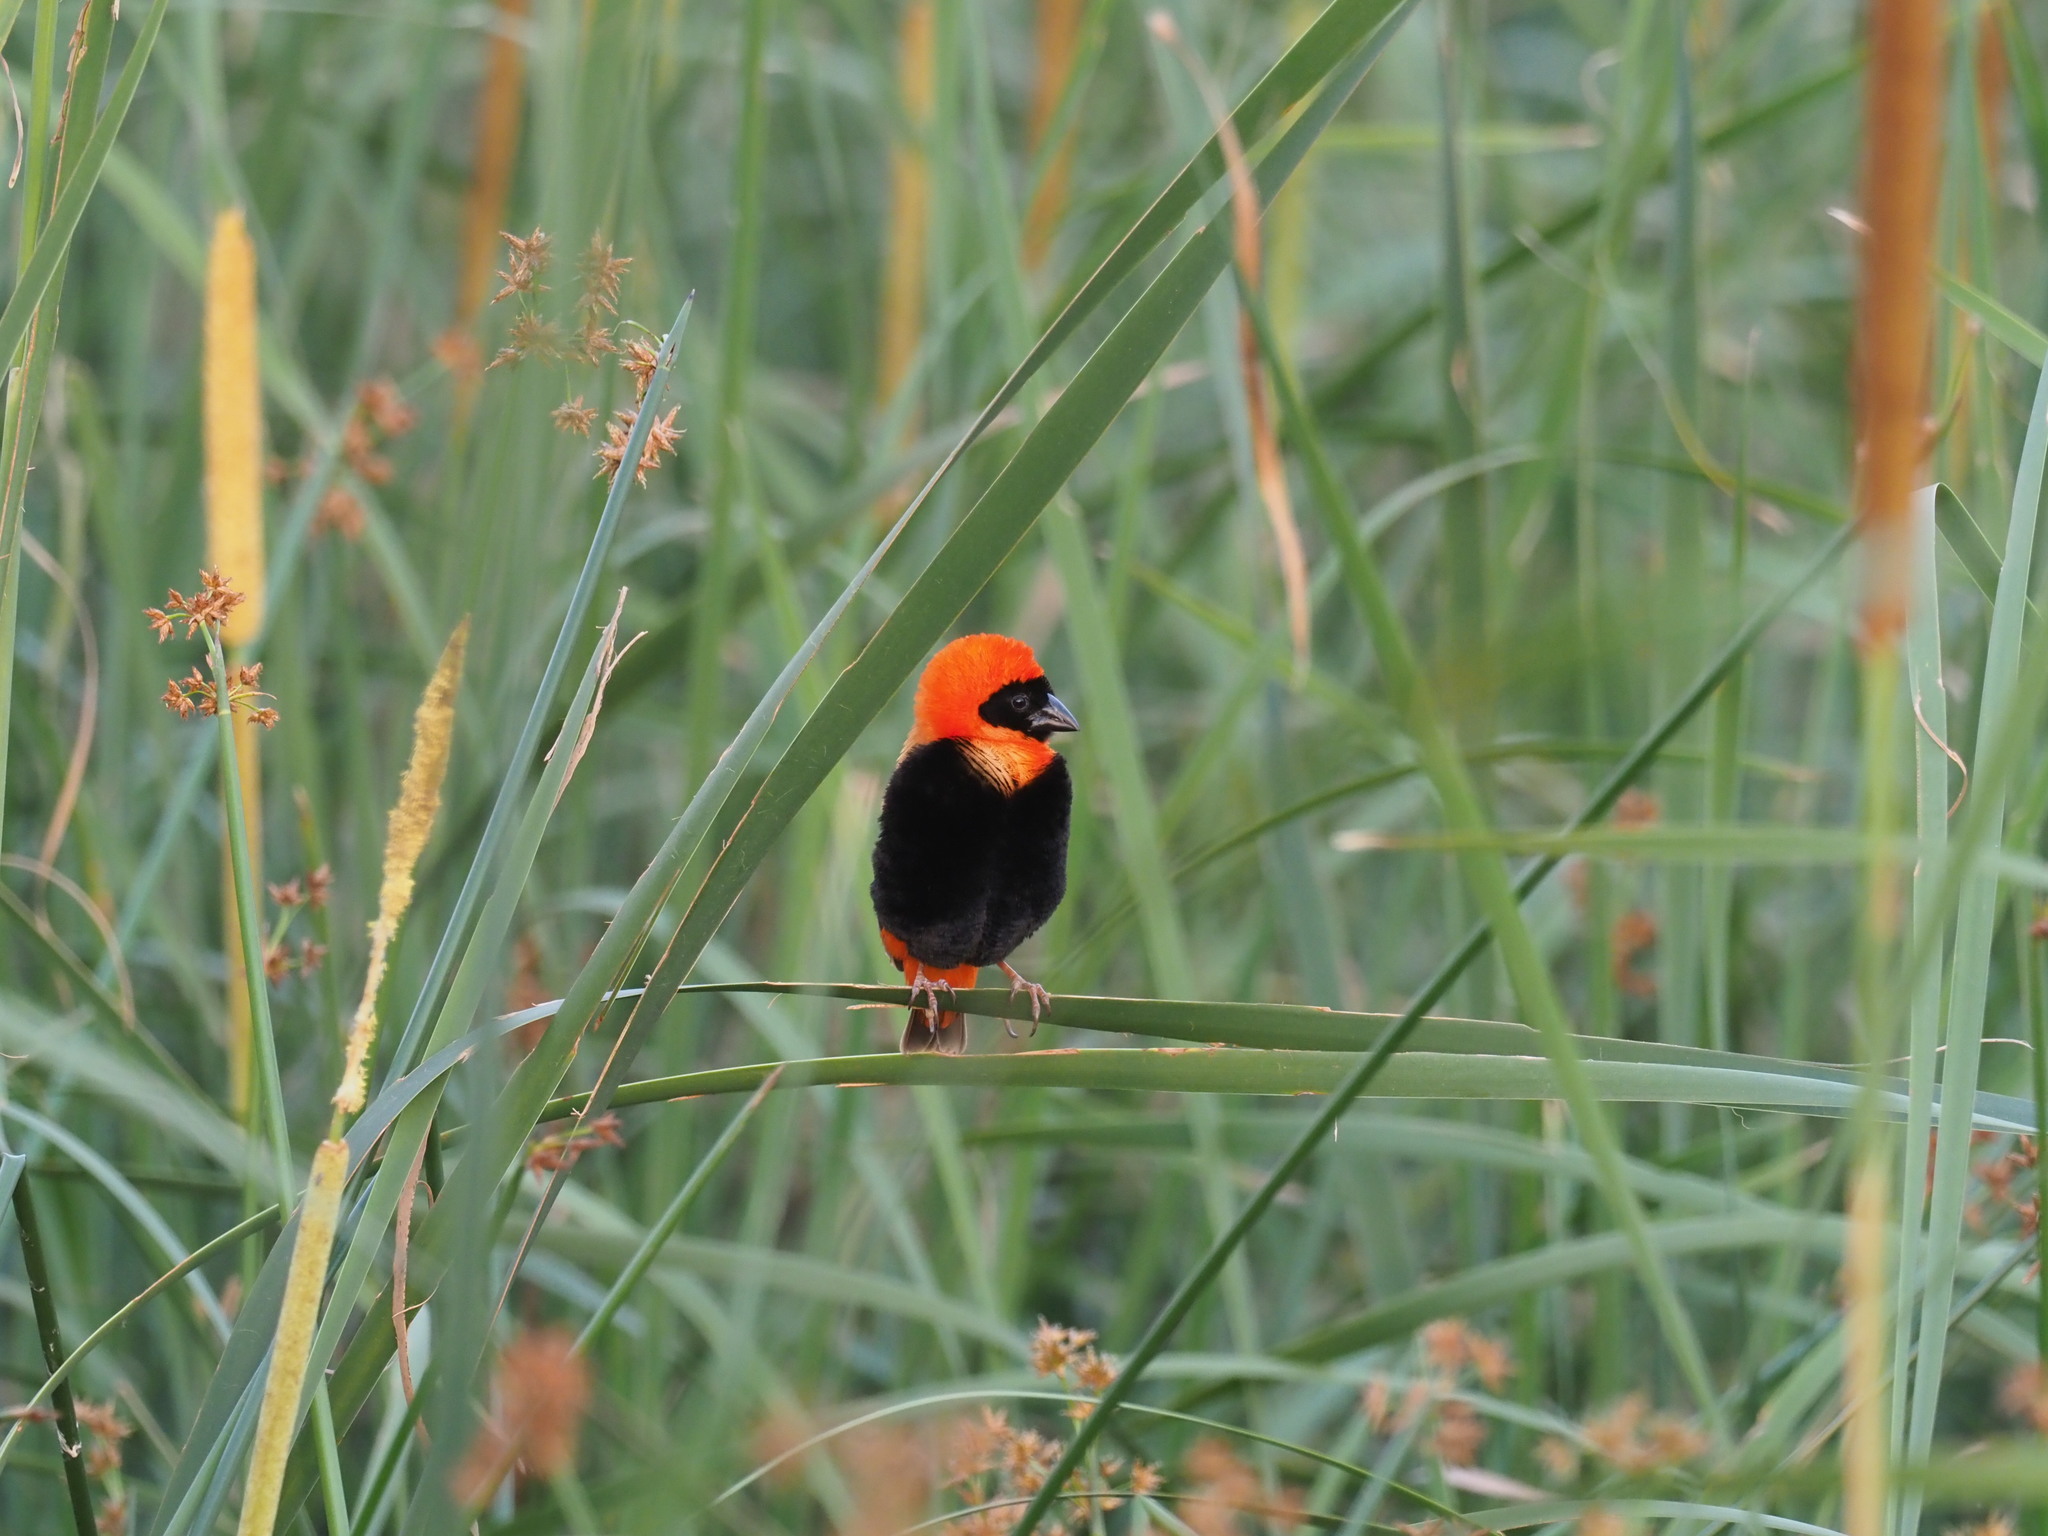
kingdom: Animalia
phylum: Chordata
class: Aves
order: Passeriformes
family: Ploceidae
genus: Euplectes
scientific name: Euplectes orix
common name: Southern red bishop
